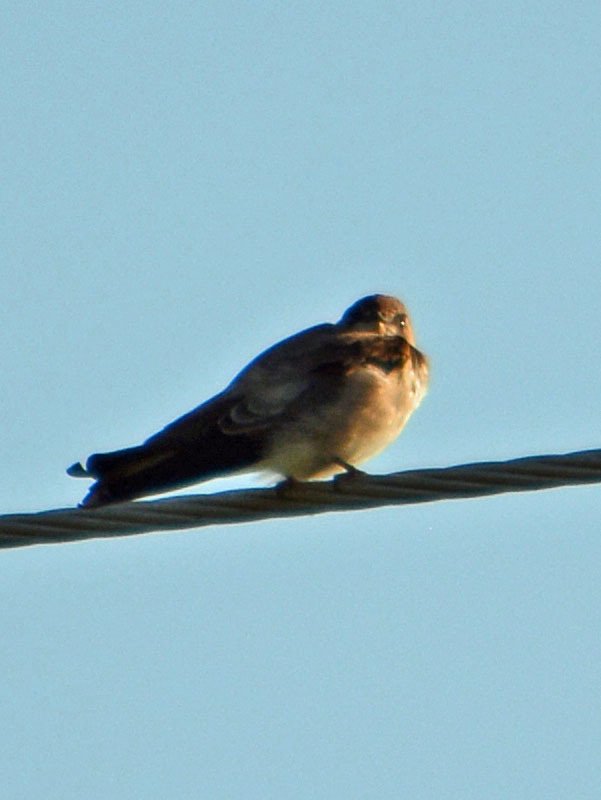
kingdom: Animalia
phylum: Chordata
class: Aves
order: Passeriformes
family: Hirundinidae
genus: Stelgidopteryx
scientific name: Stelgidopteryx serripennis
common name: Northern rough-winged swallow
